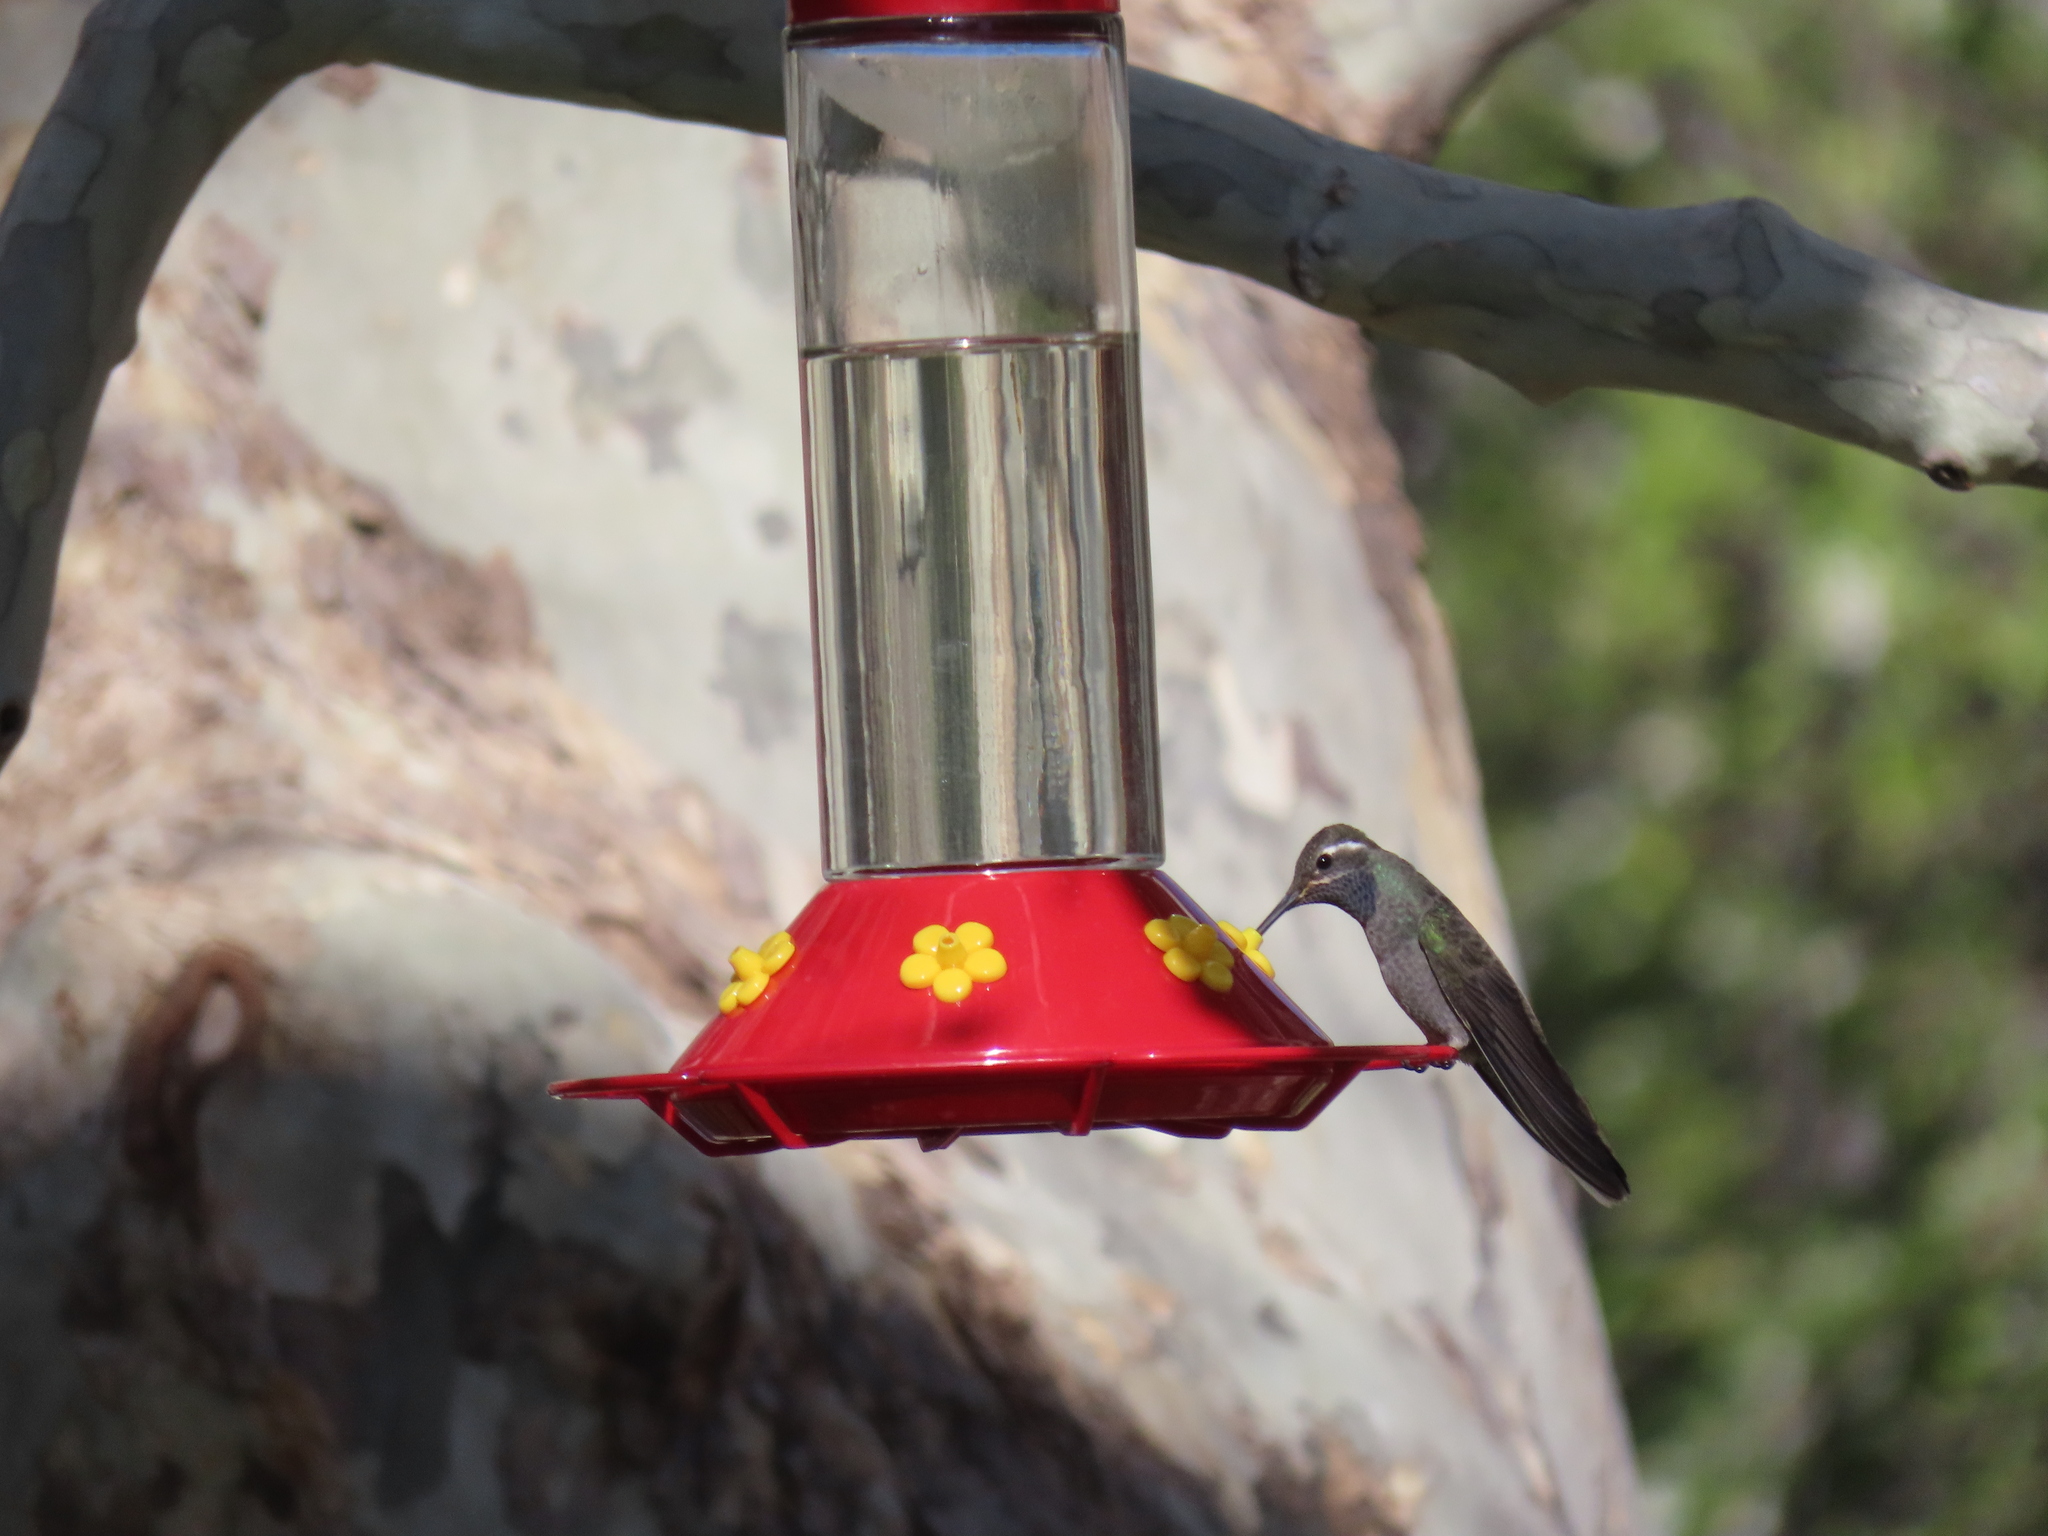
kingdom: Animalia
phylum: Chordata
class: Aves
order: Apodiformes
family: Trochilidae
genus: Lampornis
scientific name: Lampornis clemenciae
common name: Blue-throated mountaingem
